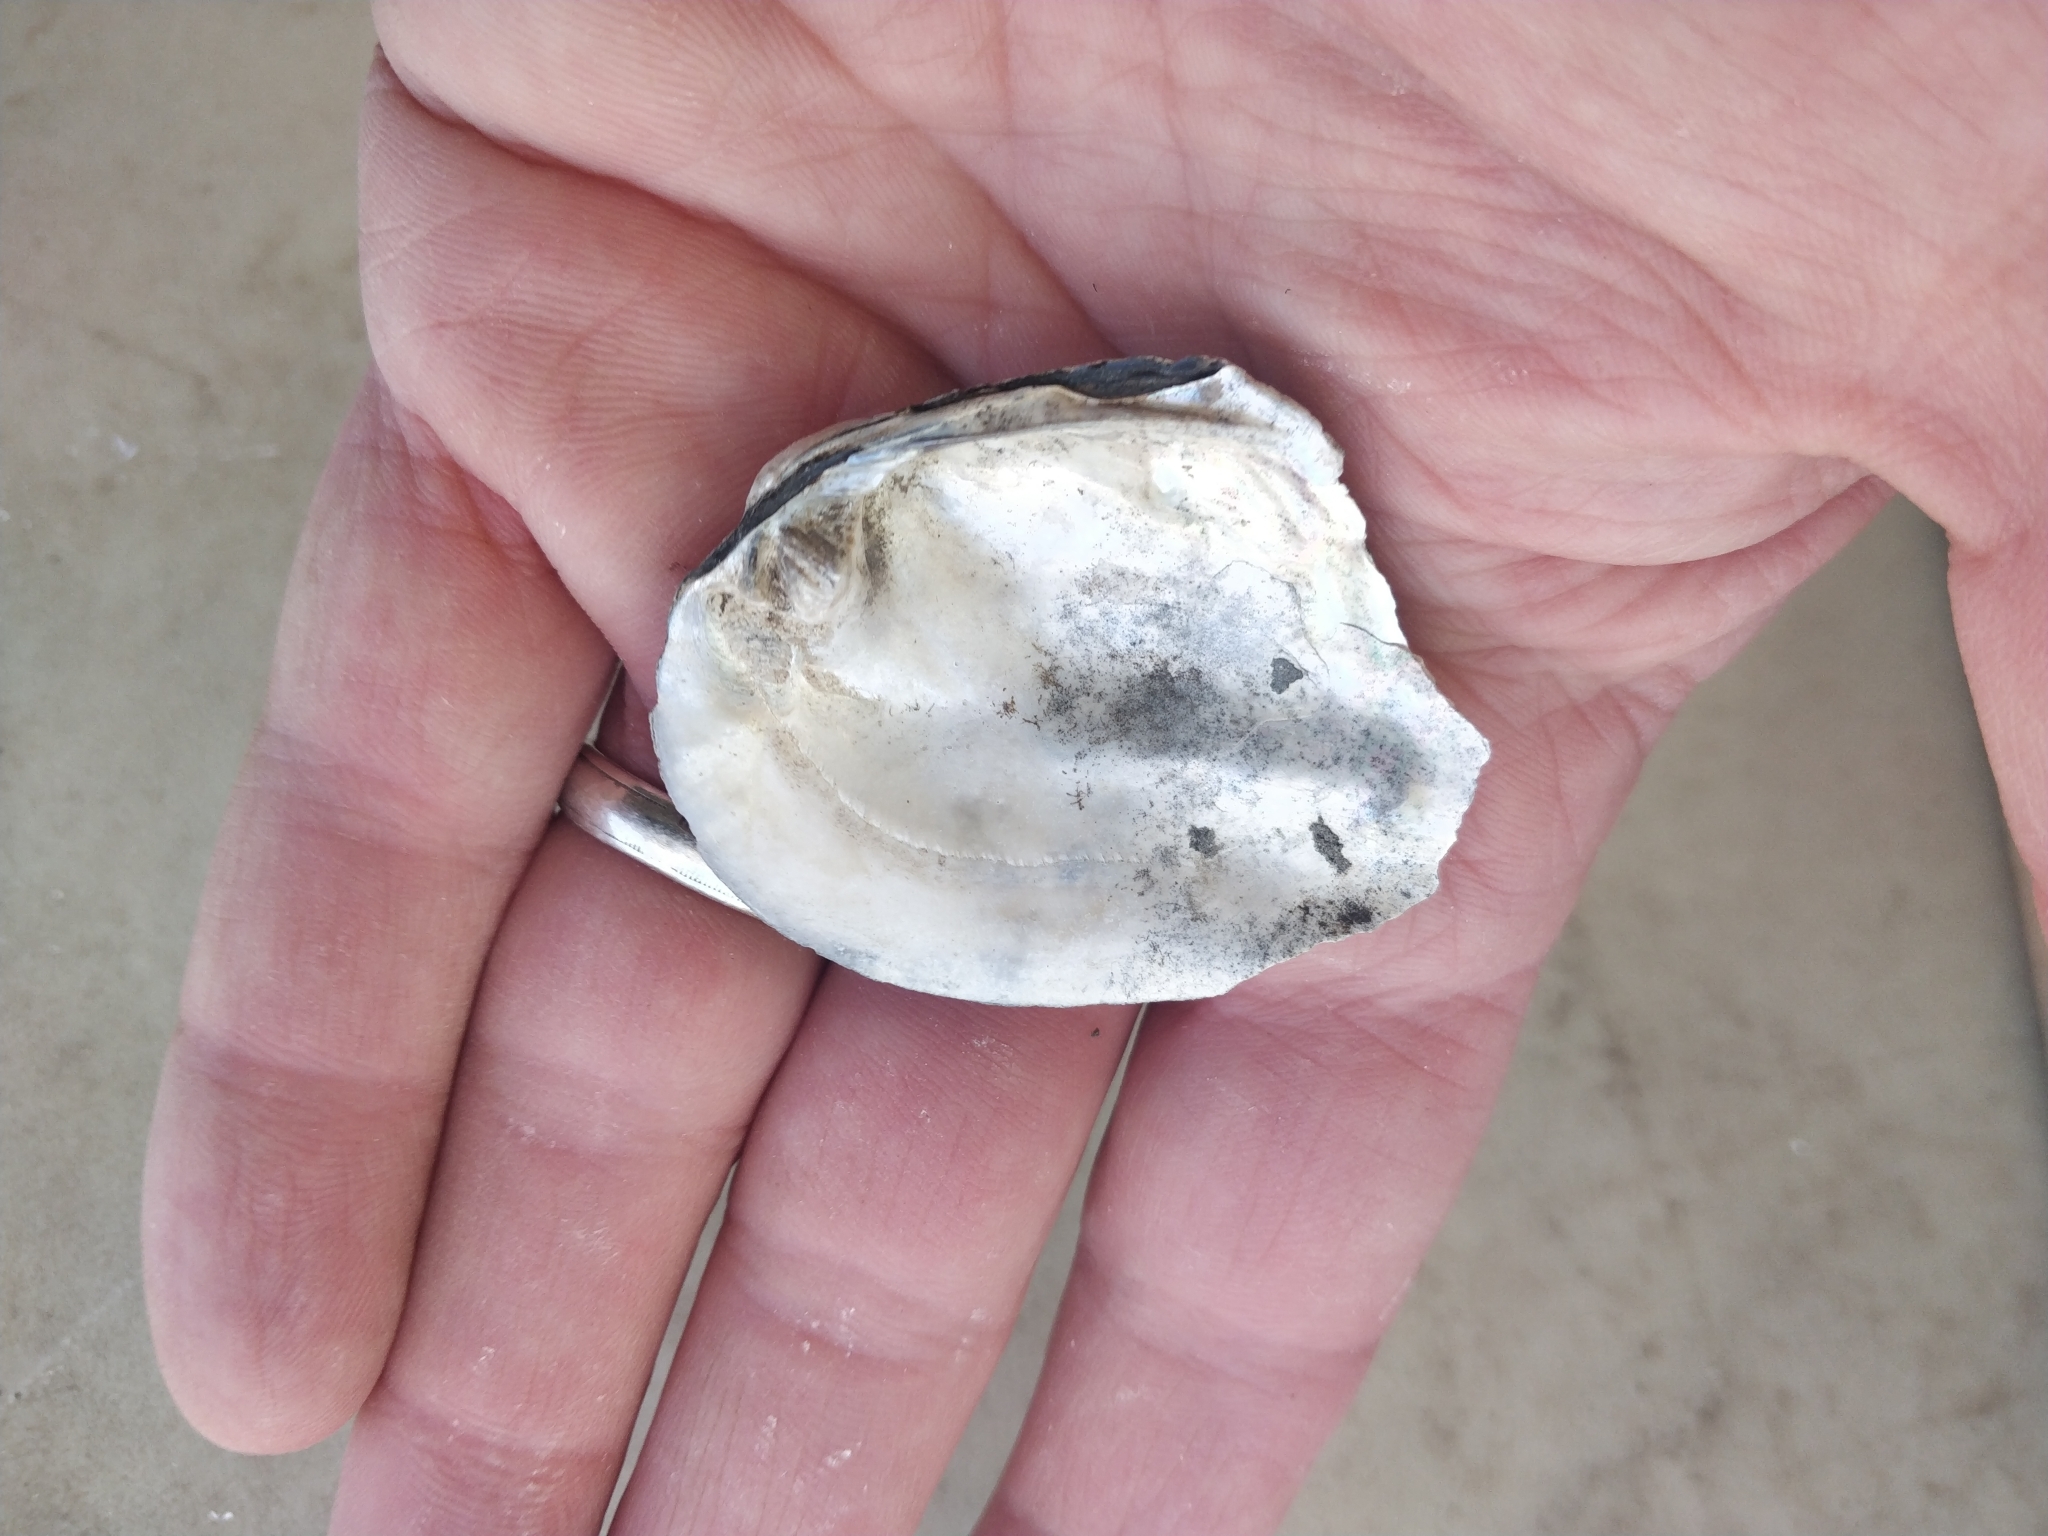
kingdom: Animalia
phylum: Mollusca
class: Bivalvia
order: Unionida
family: Unionidae
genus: Amblema
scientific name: Amblema plicata
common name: Threeridge
